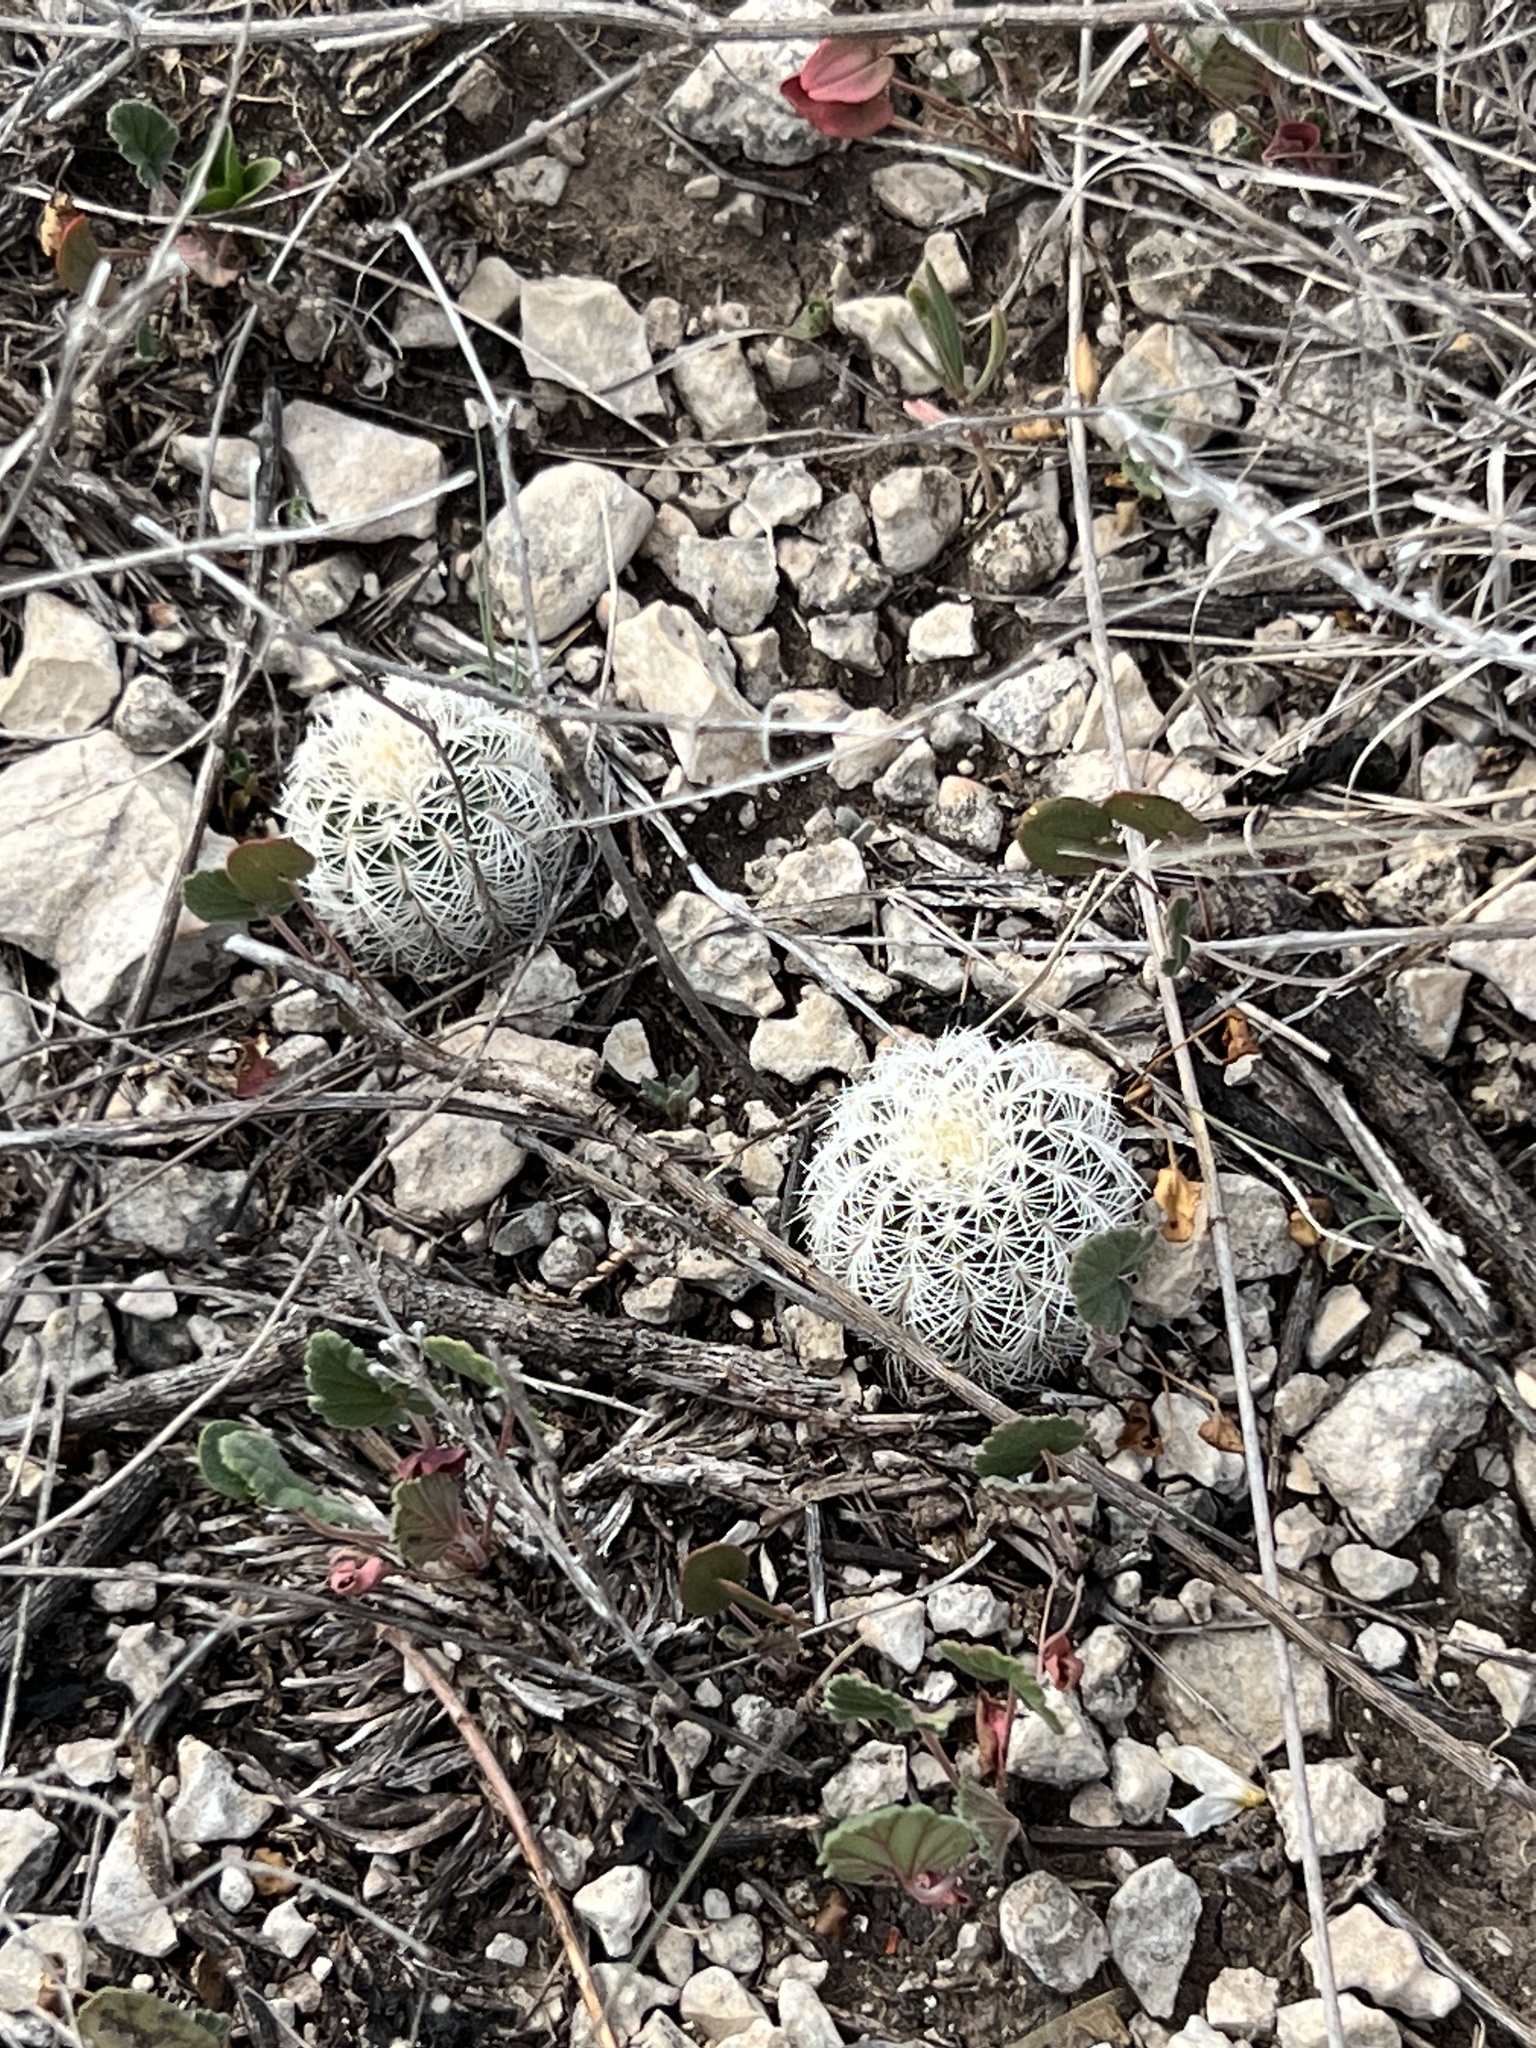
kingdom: Plantae
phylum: Tracheophyta
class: Magnoliopsida
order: Caryophyllales
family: Cactaceae
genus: Echinocereus
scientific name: Echinocereus reichenbachii
